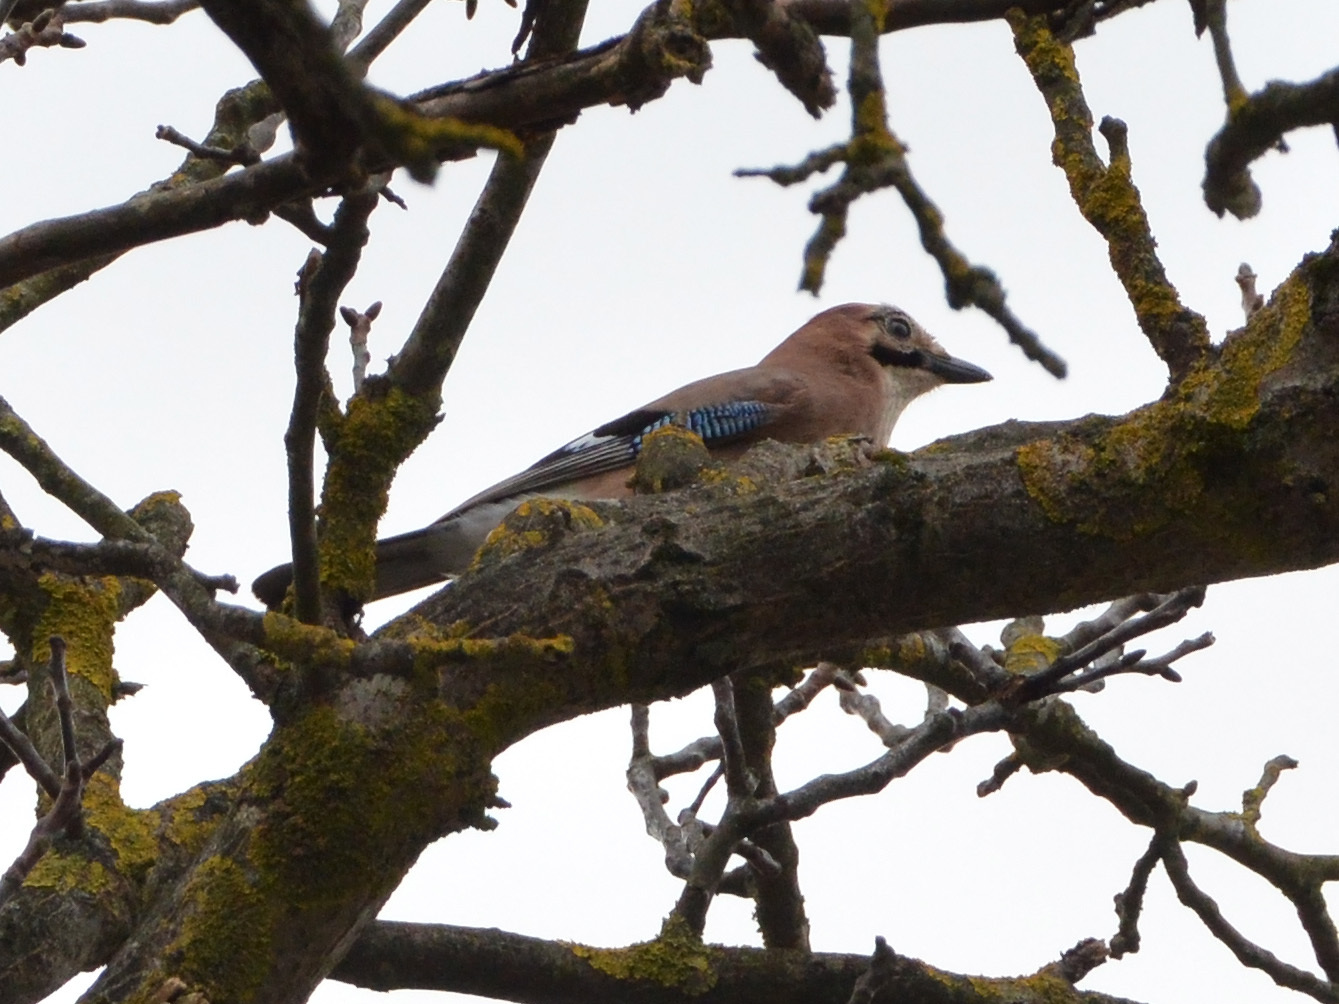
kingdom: Animalia
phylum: Chordata
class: Aves
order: Passeriformes
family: Corvidae
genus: Garrulus
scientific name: Garrulus glandarius
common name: Eurasian jay
